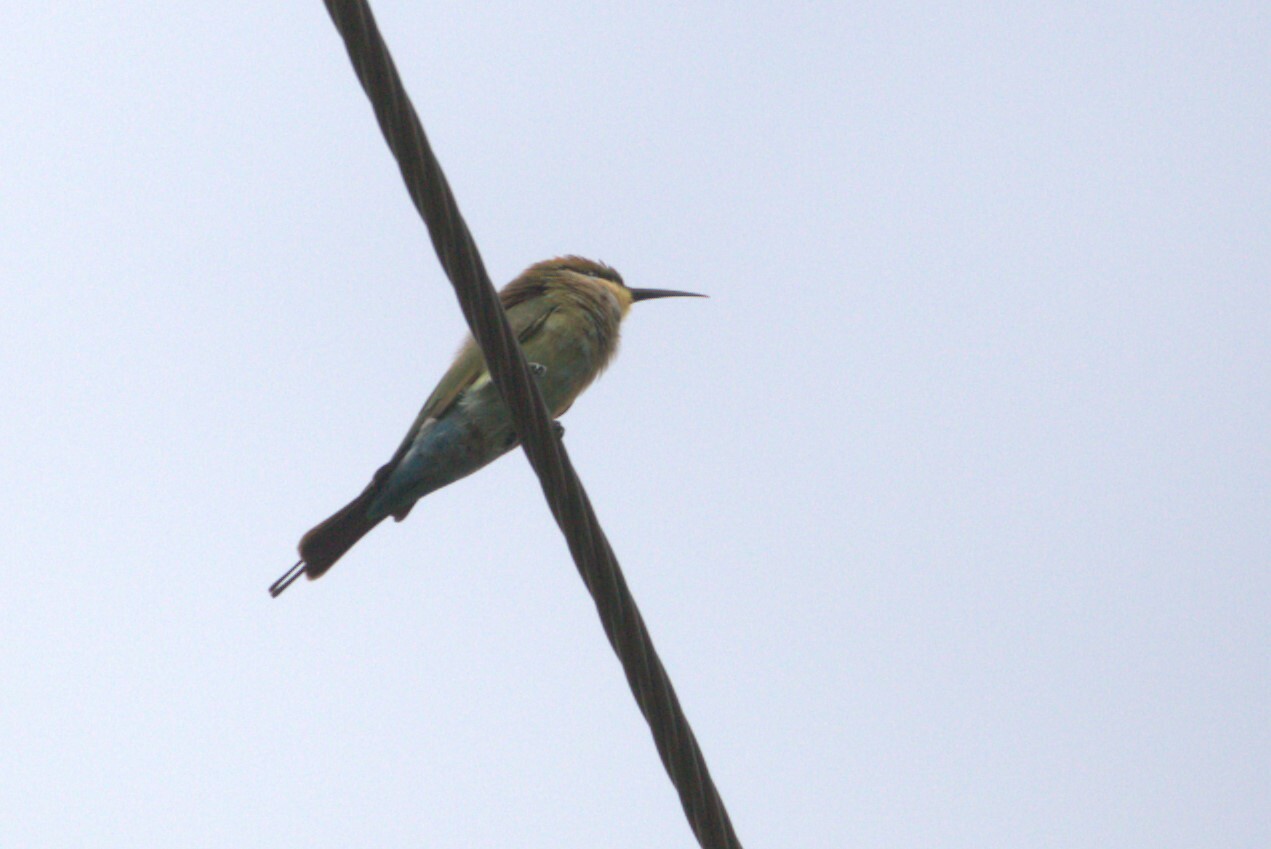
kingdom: Animalia
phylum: Chordata
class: Aves
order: Coraciiformes
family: Meropidae
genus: Merops
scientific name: Merops ornatus
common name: Rainbow bee-eater
